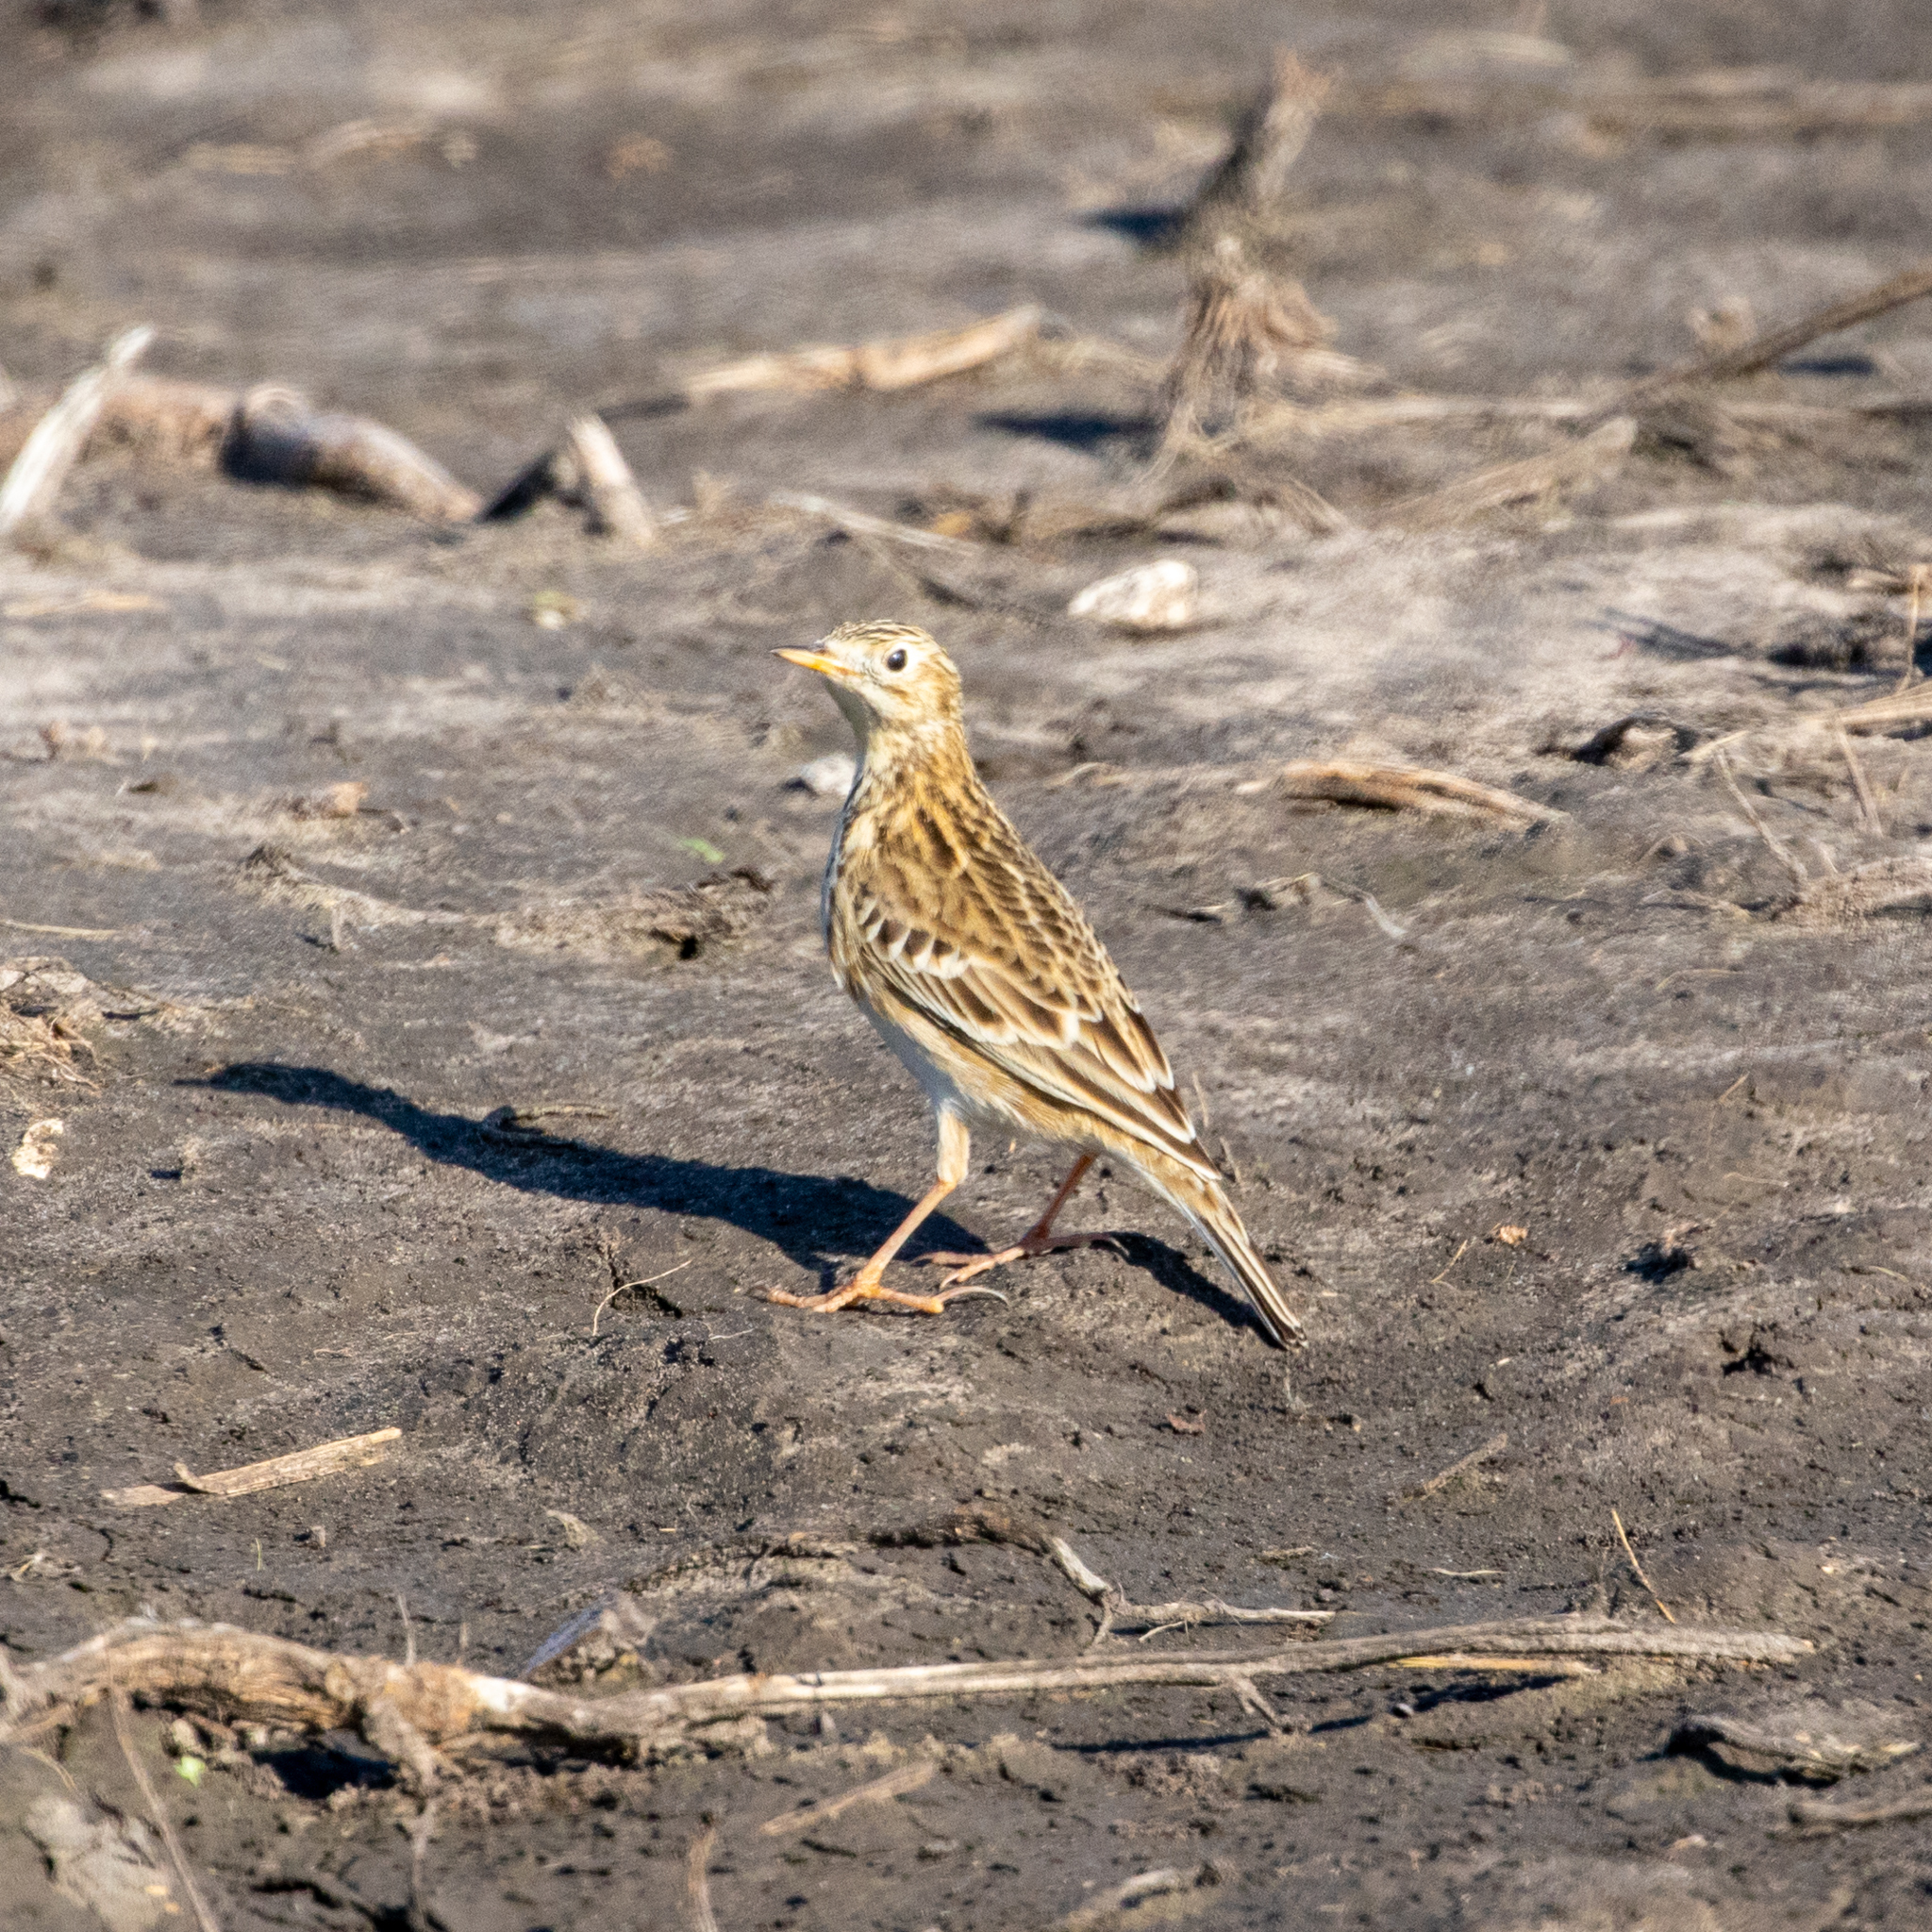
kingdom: Animalia
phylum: Chordata
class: Aves
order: Passeriformes
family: Motacillidae
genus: Anthus
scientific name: Anthus spragueii
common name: Sprague's pipit
